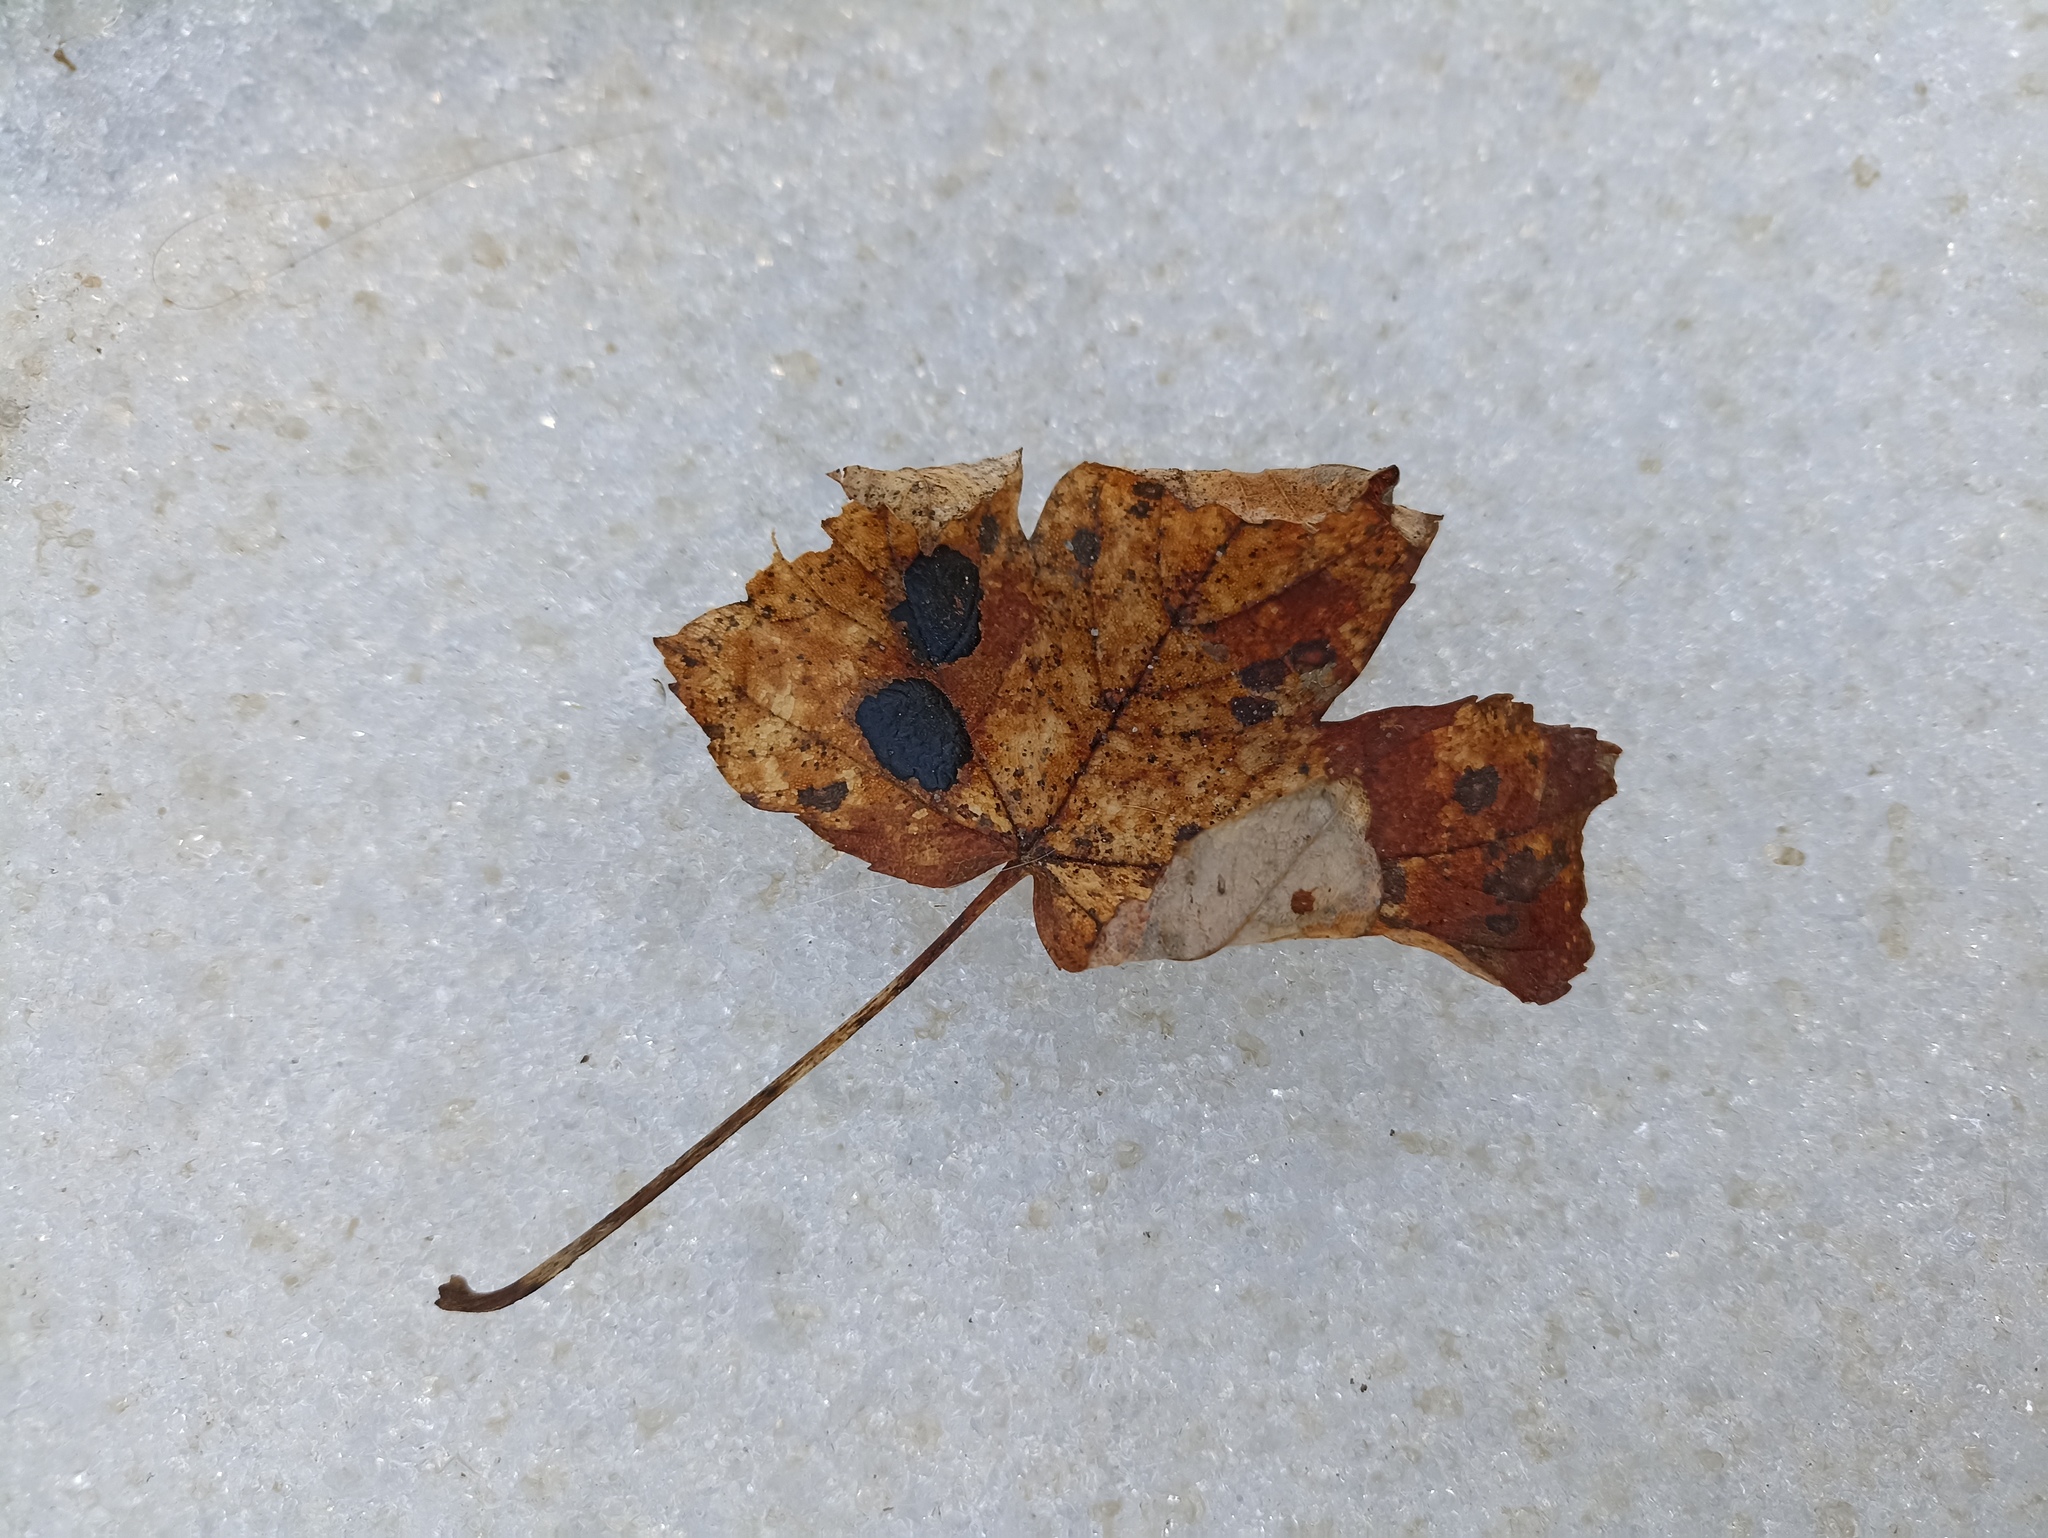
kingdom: Fungi
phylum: Ascomycota
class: Leotiomycetes
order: Rhytismatales
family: Rhytismataceae
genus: Rhytisma
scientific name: Rhytisma acerinum
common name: European tar spot
